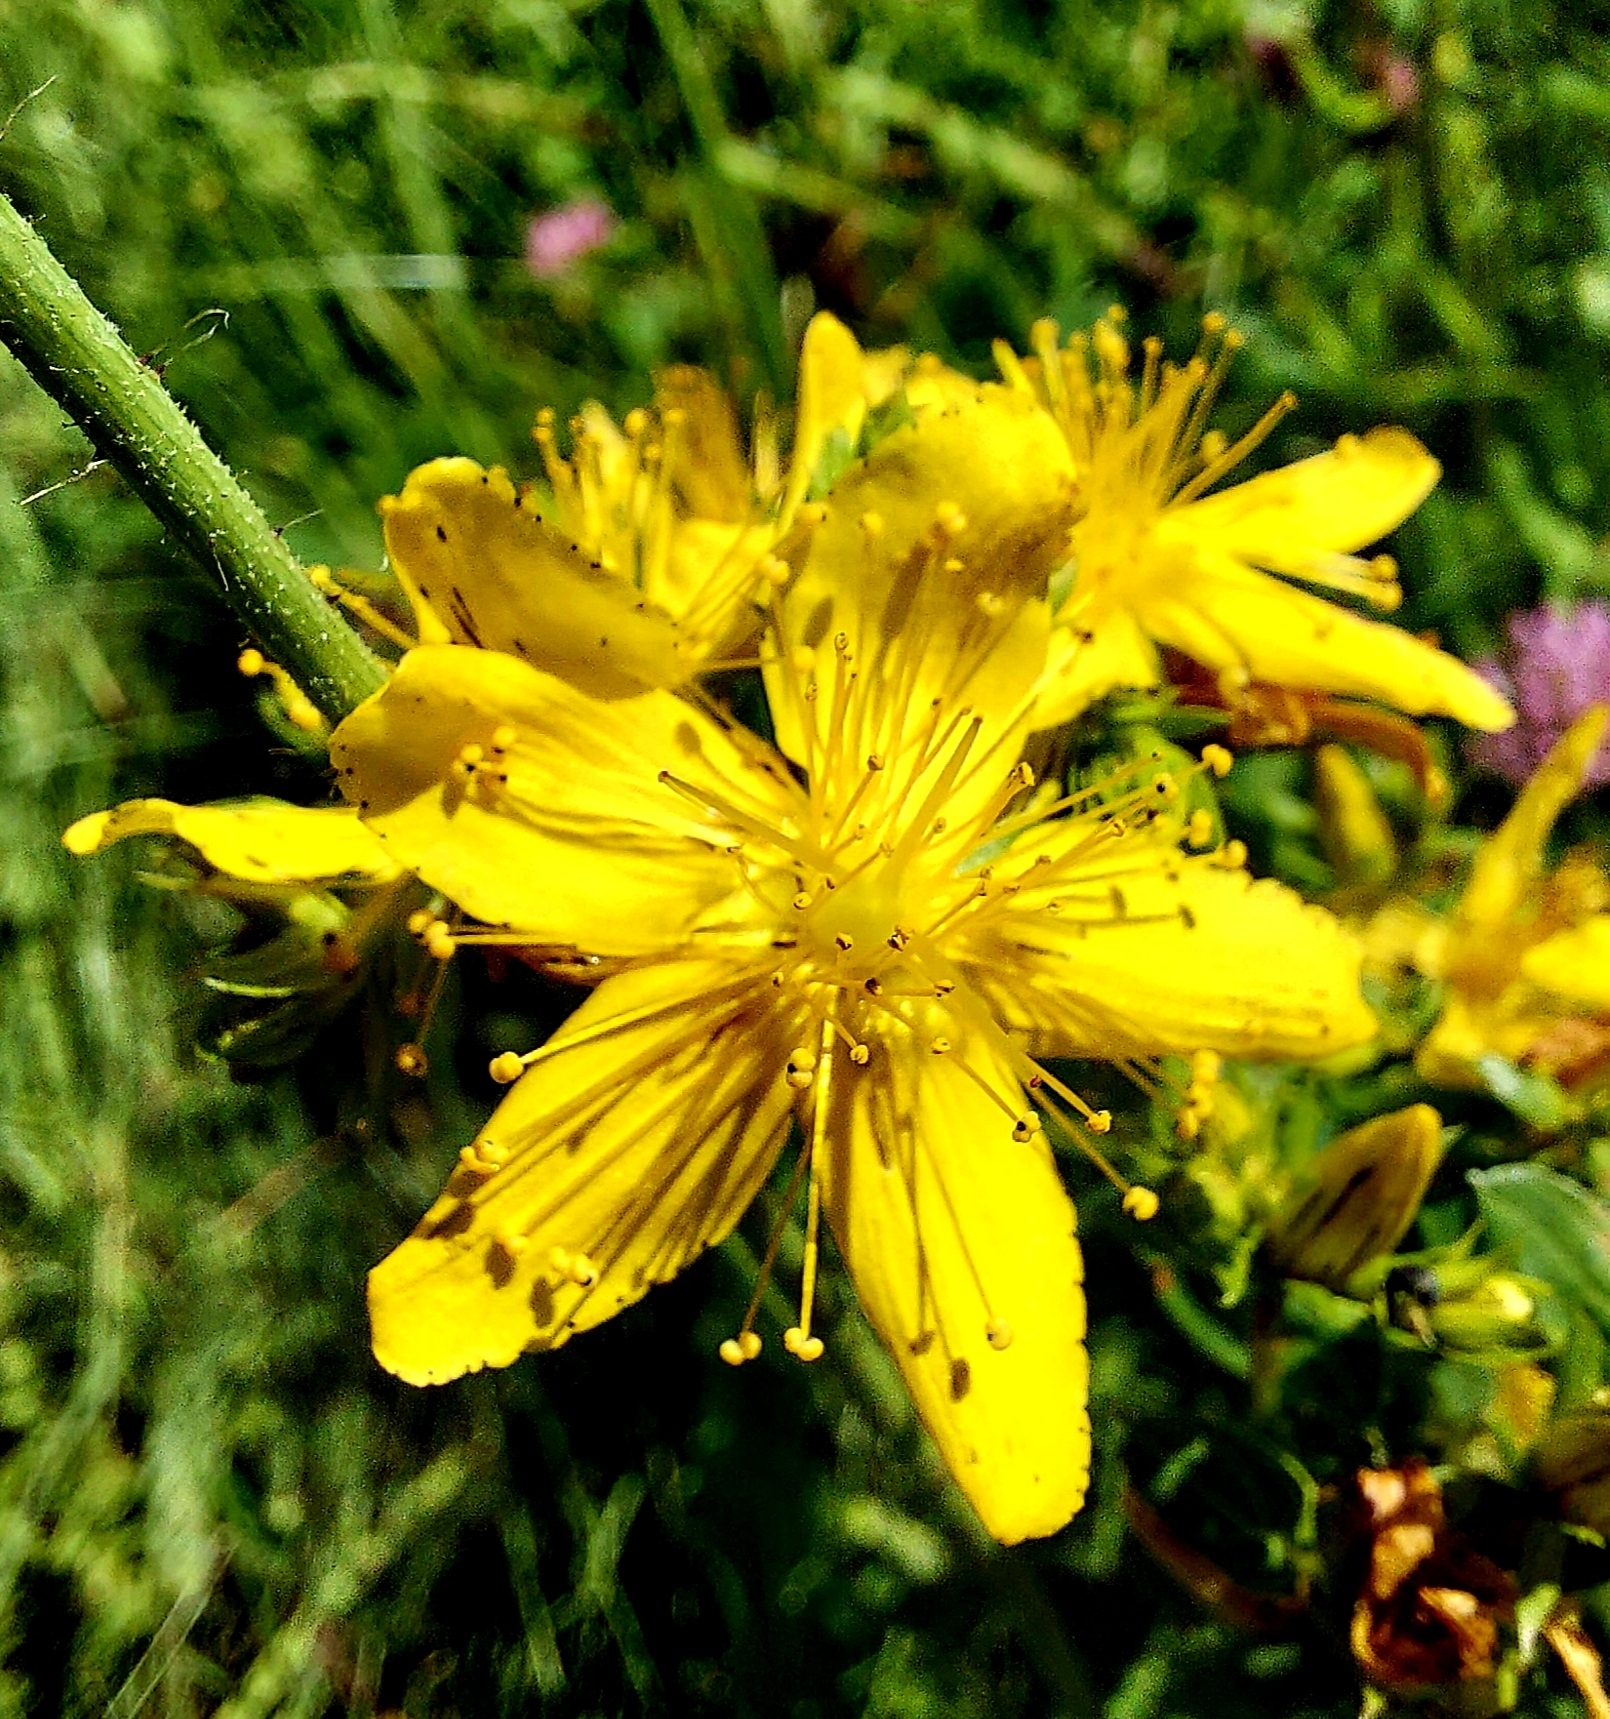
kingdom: Plantae
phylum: Tracheophyta
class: Magnoliopsida
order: Malpighiales
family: Hypericaceae
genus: Hypericum
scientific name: Hypericum perforatum
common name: Common st. johnswort
